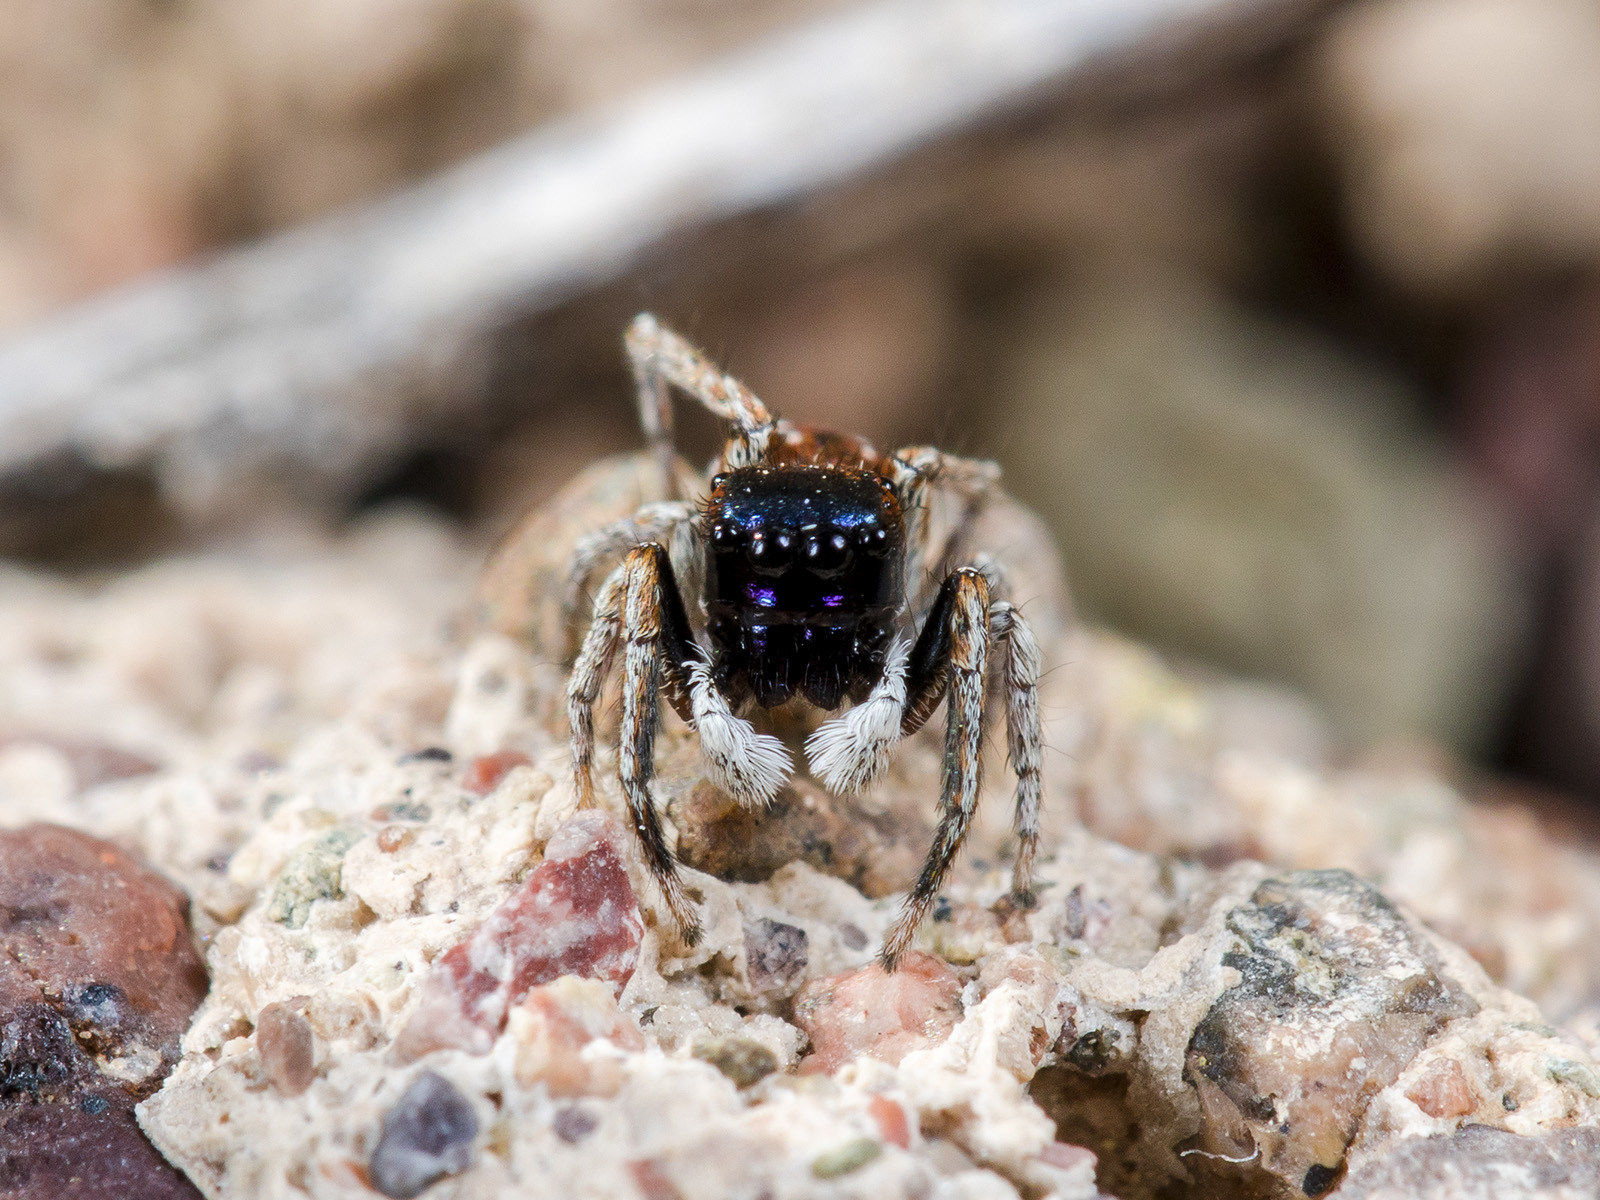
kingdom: Animalia
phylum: Arthropoda
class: Arachnida
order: Araneae
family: Salticidae
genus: Attulus
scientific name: Attulus mirandus
